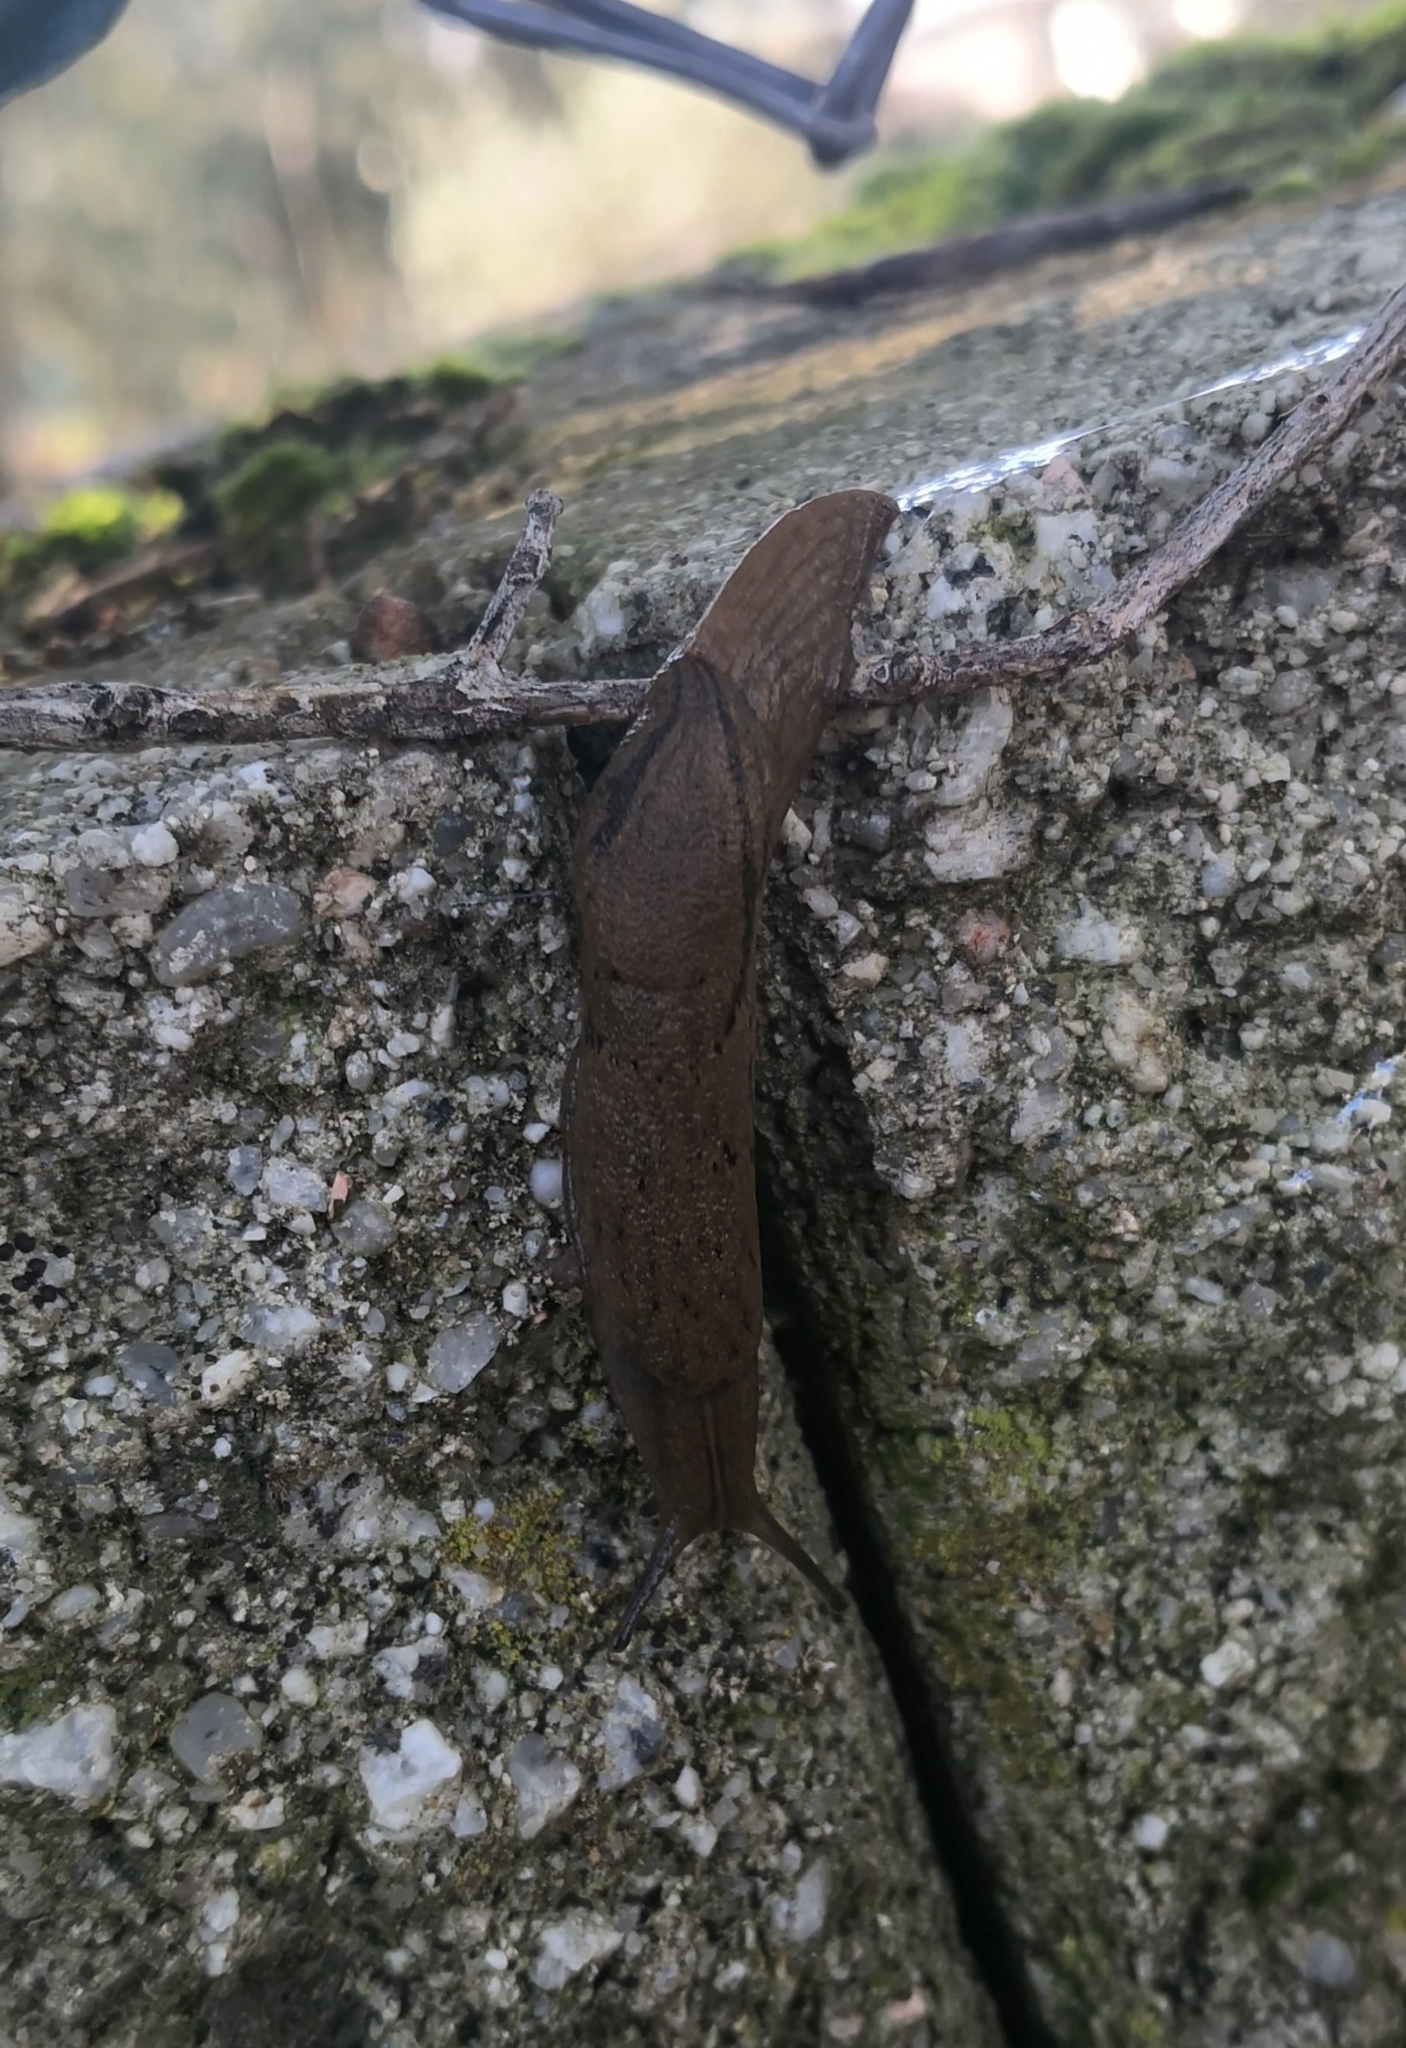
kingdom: Animalia
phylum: Mollusca
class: Gastropoda
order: Stylommatophora
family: Parmacellidae
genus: Drusia
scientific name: Drusia valenciennii
